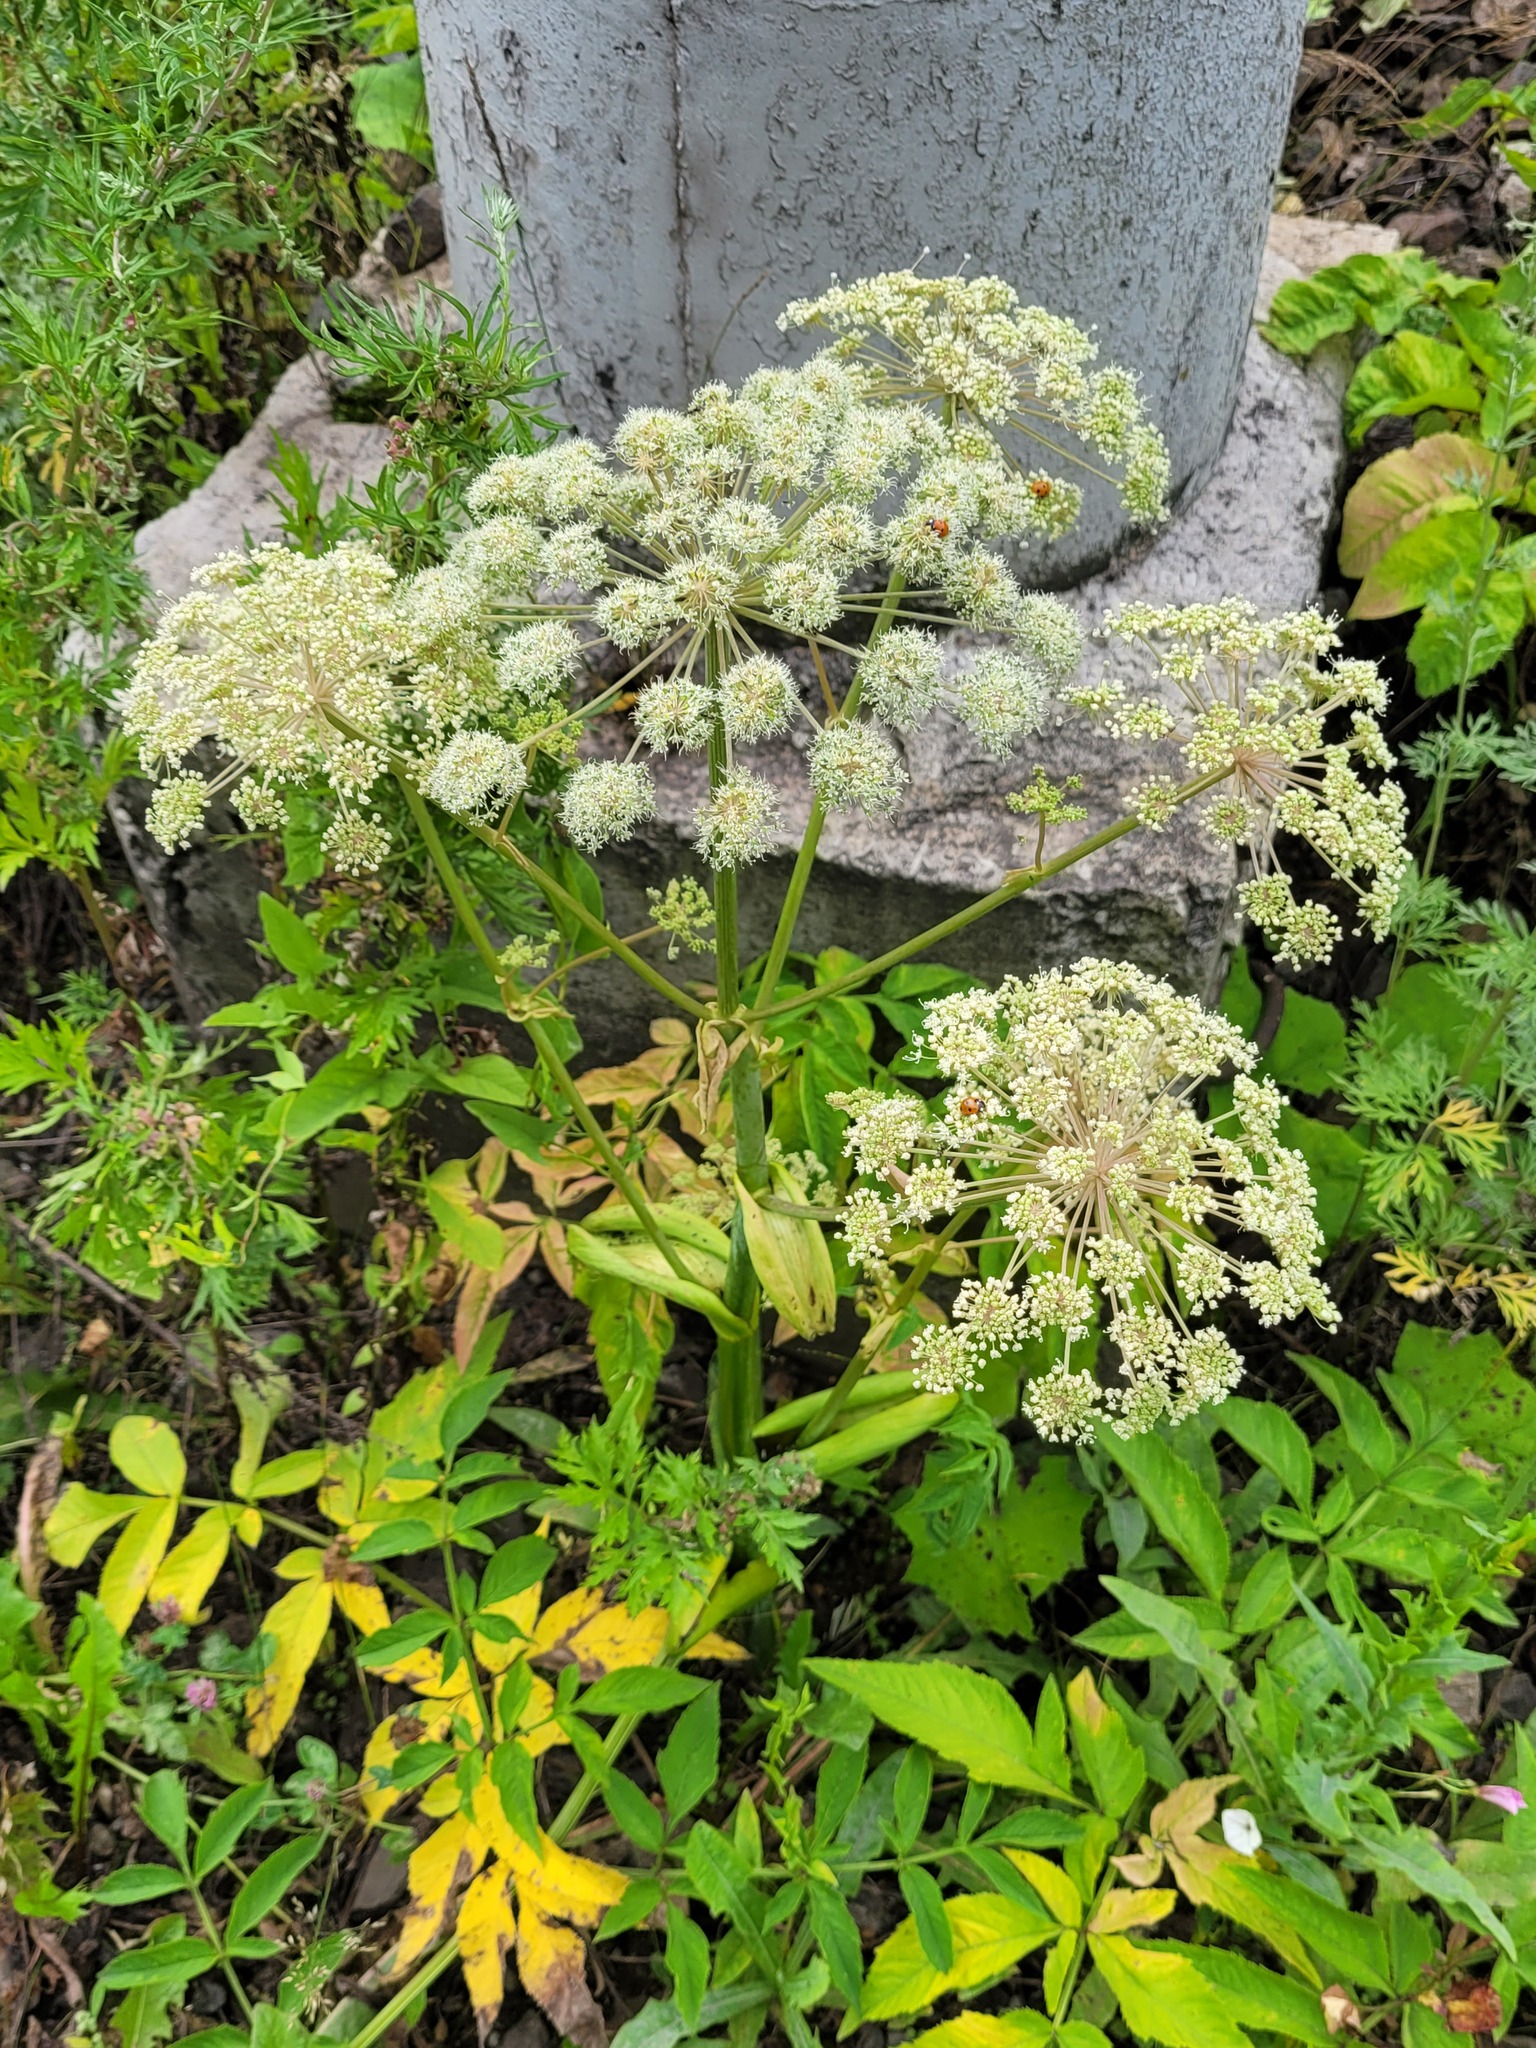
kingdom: Plantae
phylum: Tracheophyta
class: Magnoliopsida
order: Apiales
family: Apiaceae
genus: Angelica
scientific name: Angelica sylvestris
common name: Wild angelica
